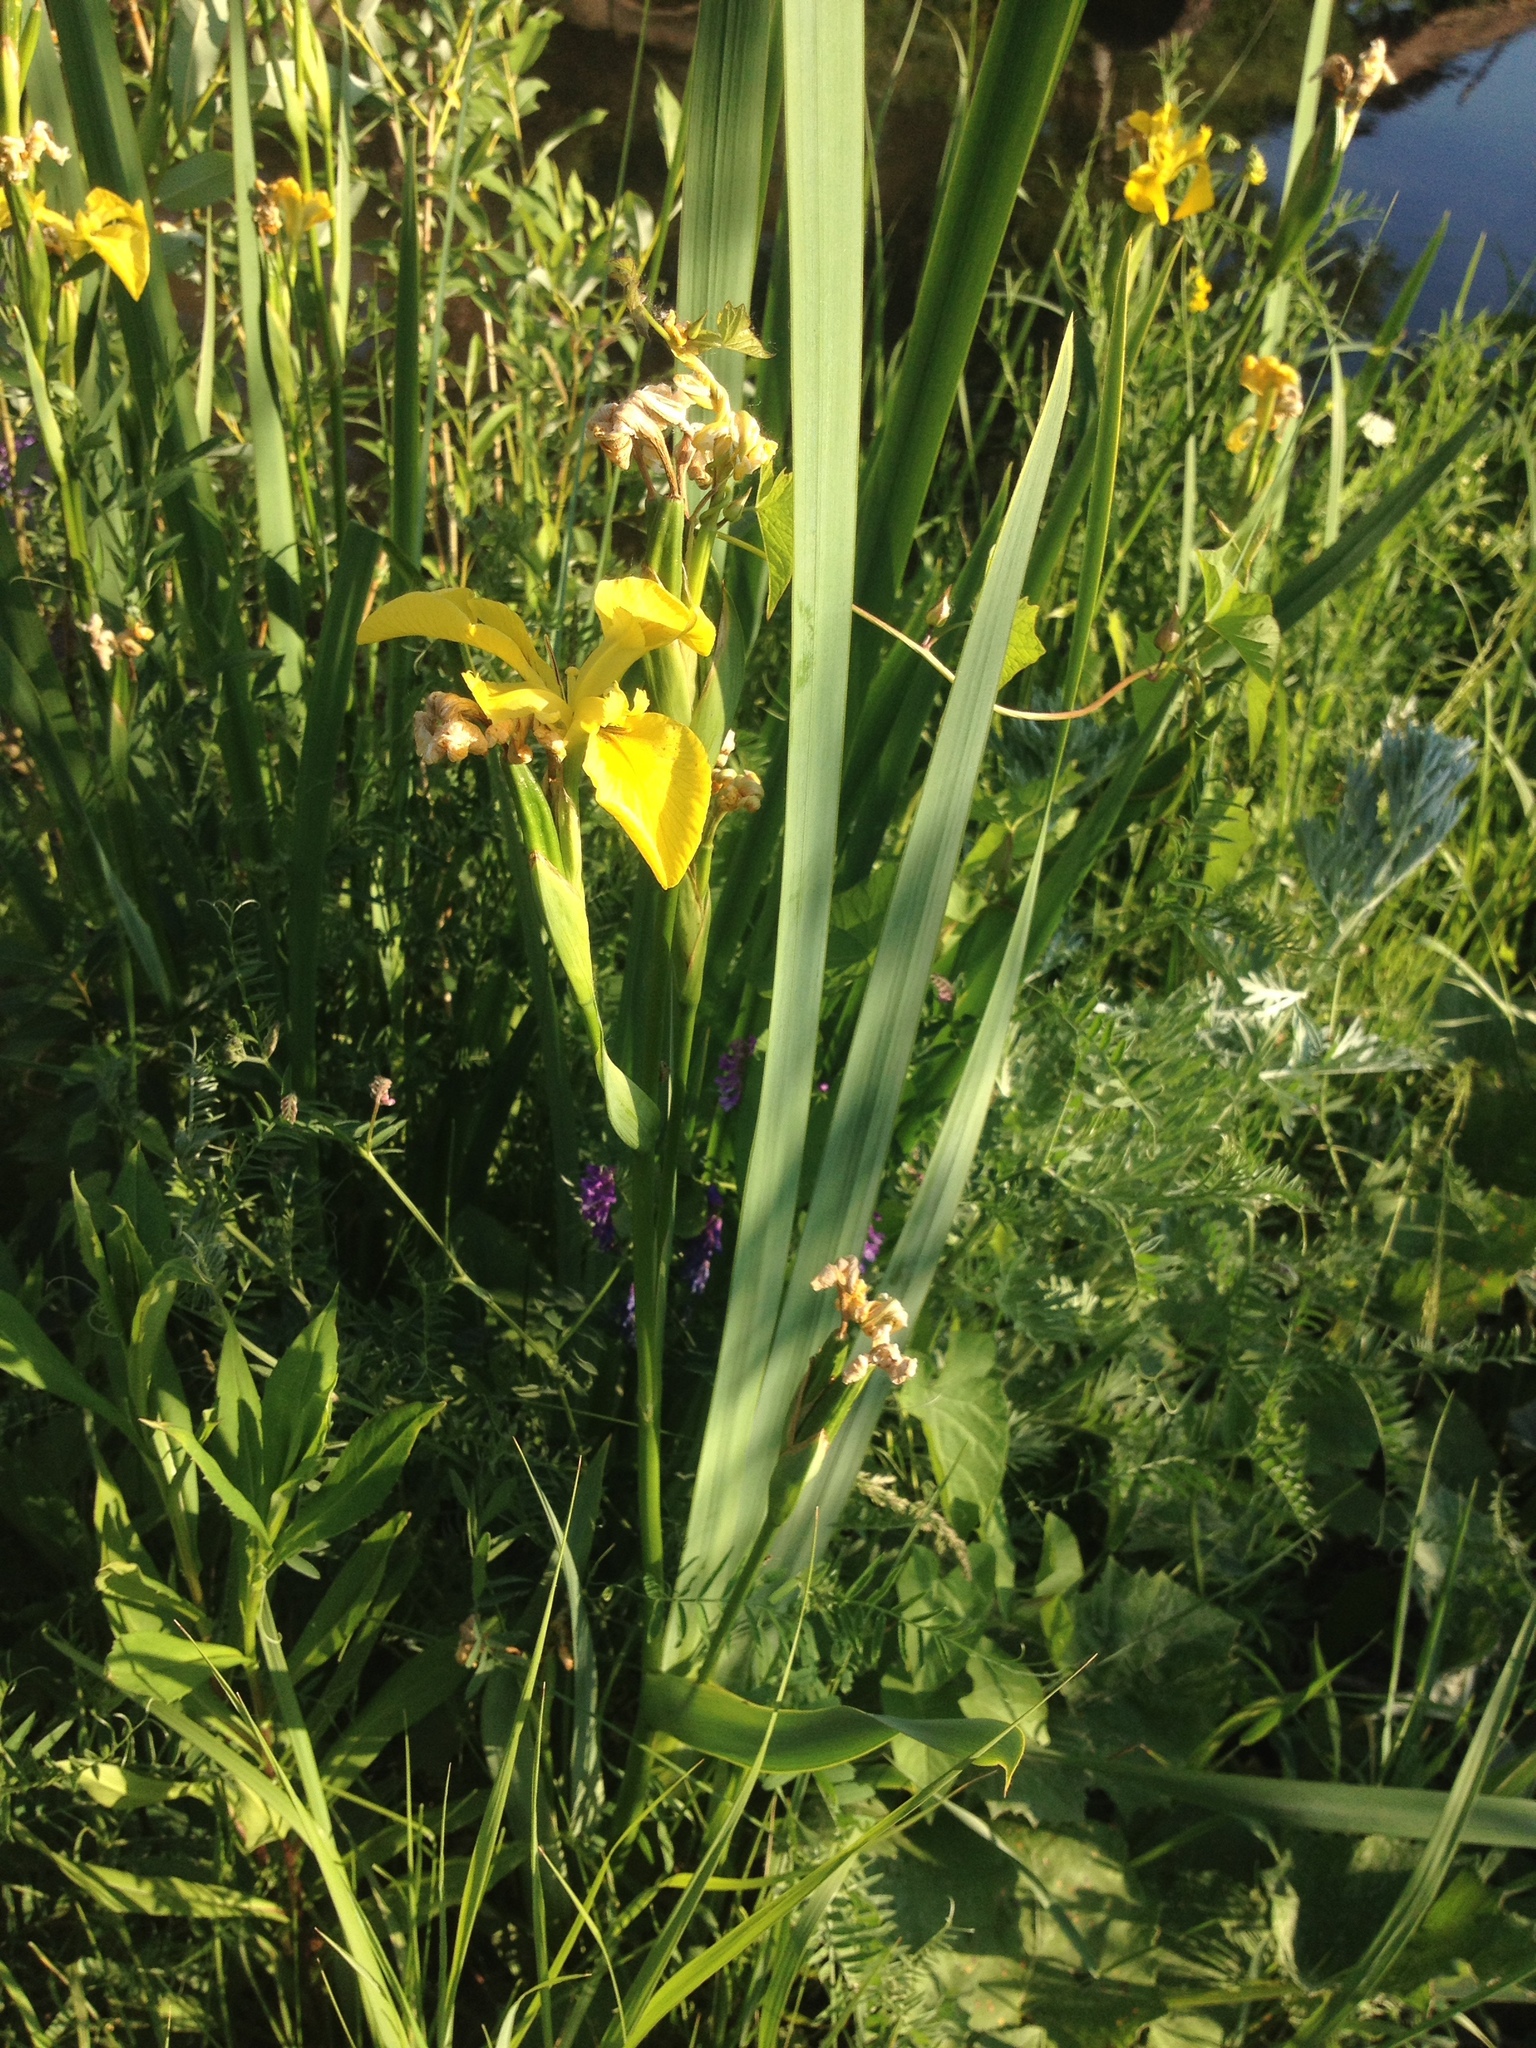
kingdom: Plantae
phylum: Tracheophyta
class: Liliopsida
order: Asparagales
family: Iridaceae
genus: Iris
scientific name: Iris pseudacorus
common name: Yellow flag
